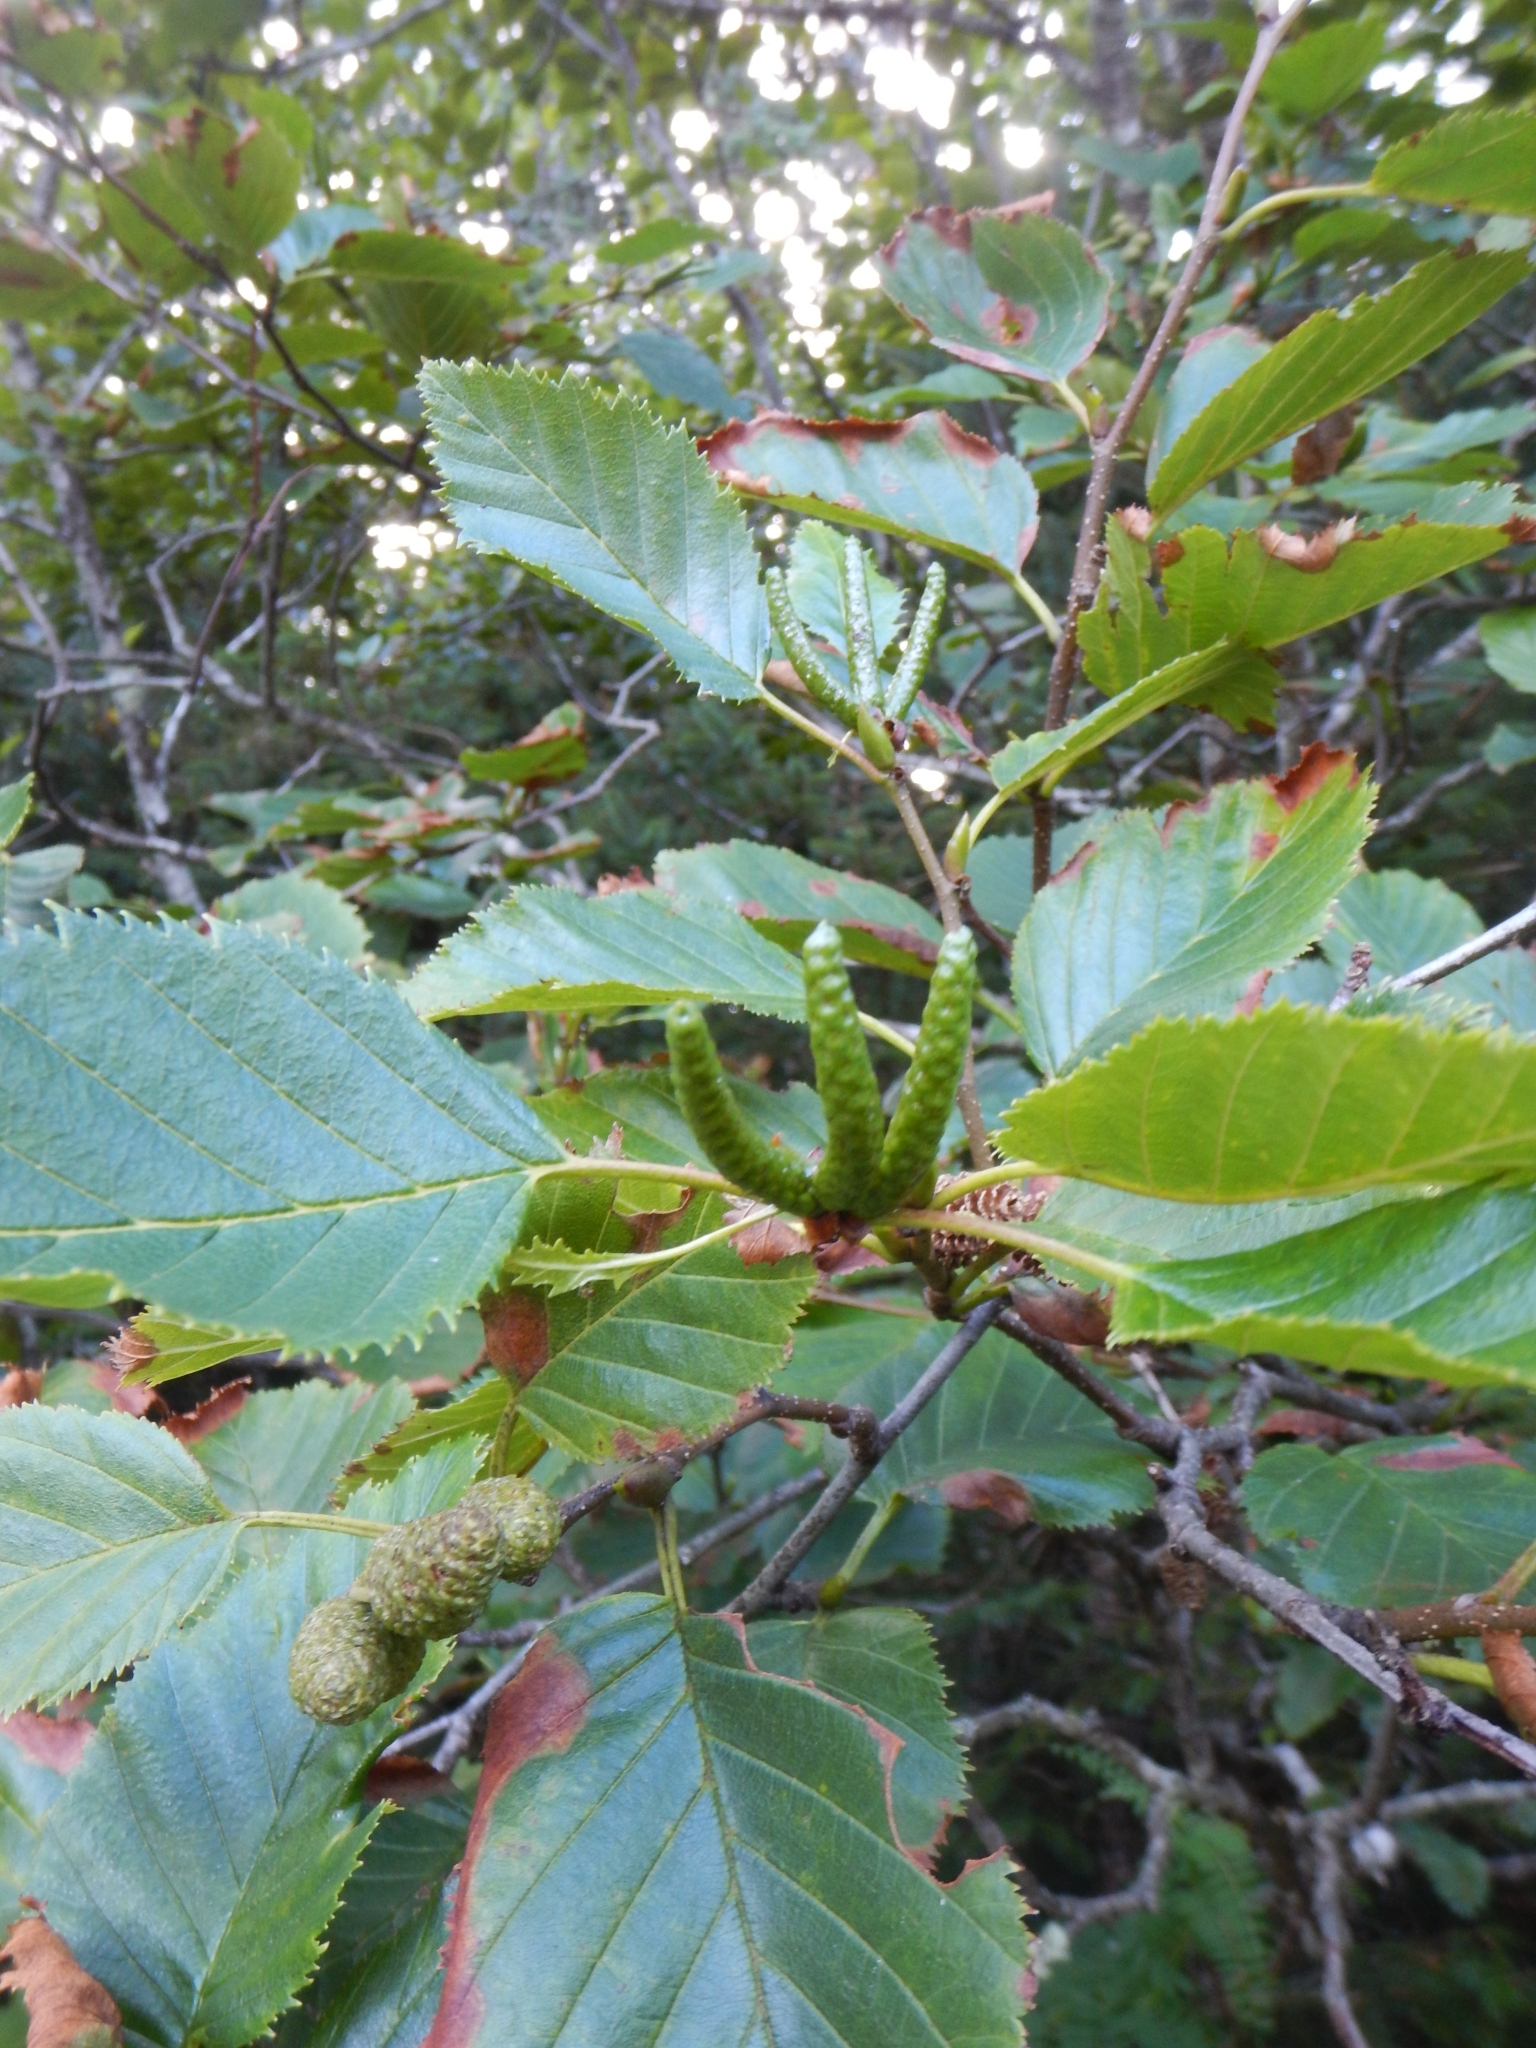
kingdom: Plantae
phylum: Tracheophyta
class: Magnoliopsida
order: Fagales
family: Betulaceae
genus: Alnus
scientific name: Alnus alnobetula
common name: Green alder
